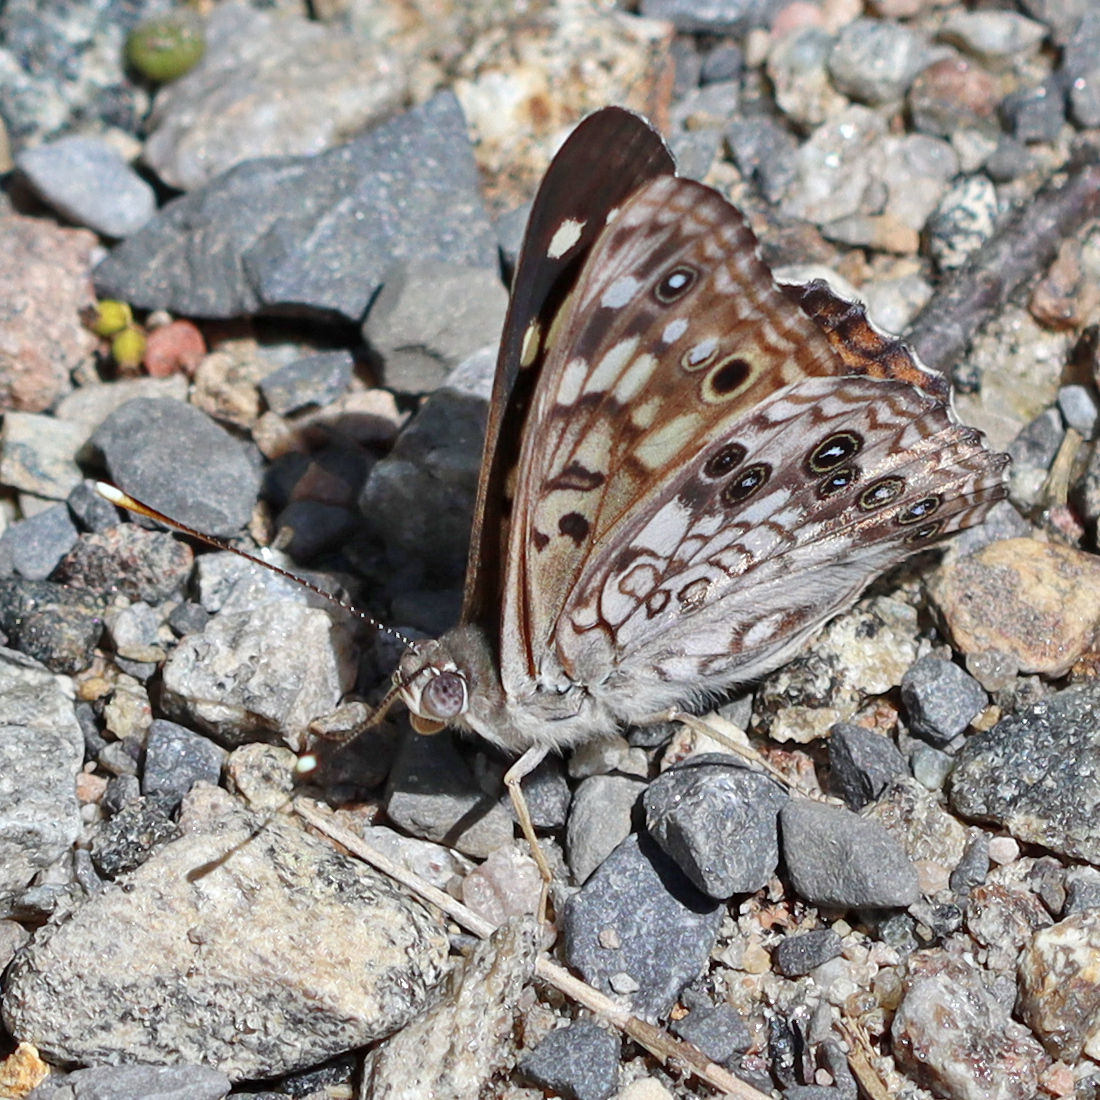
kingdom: Animalia
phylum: Arthropoda
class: Insecta
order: Lepidoptera
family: Nymphalidae
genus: Asterocampa
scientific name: Asterocampa celtis
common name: Hackberry emperor
